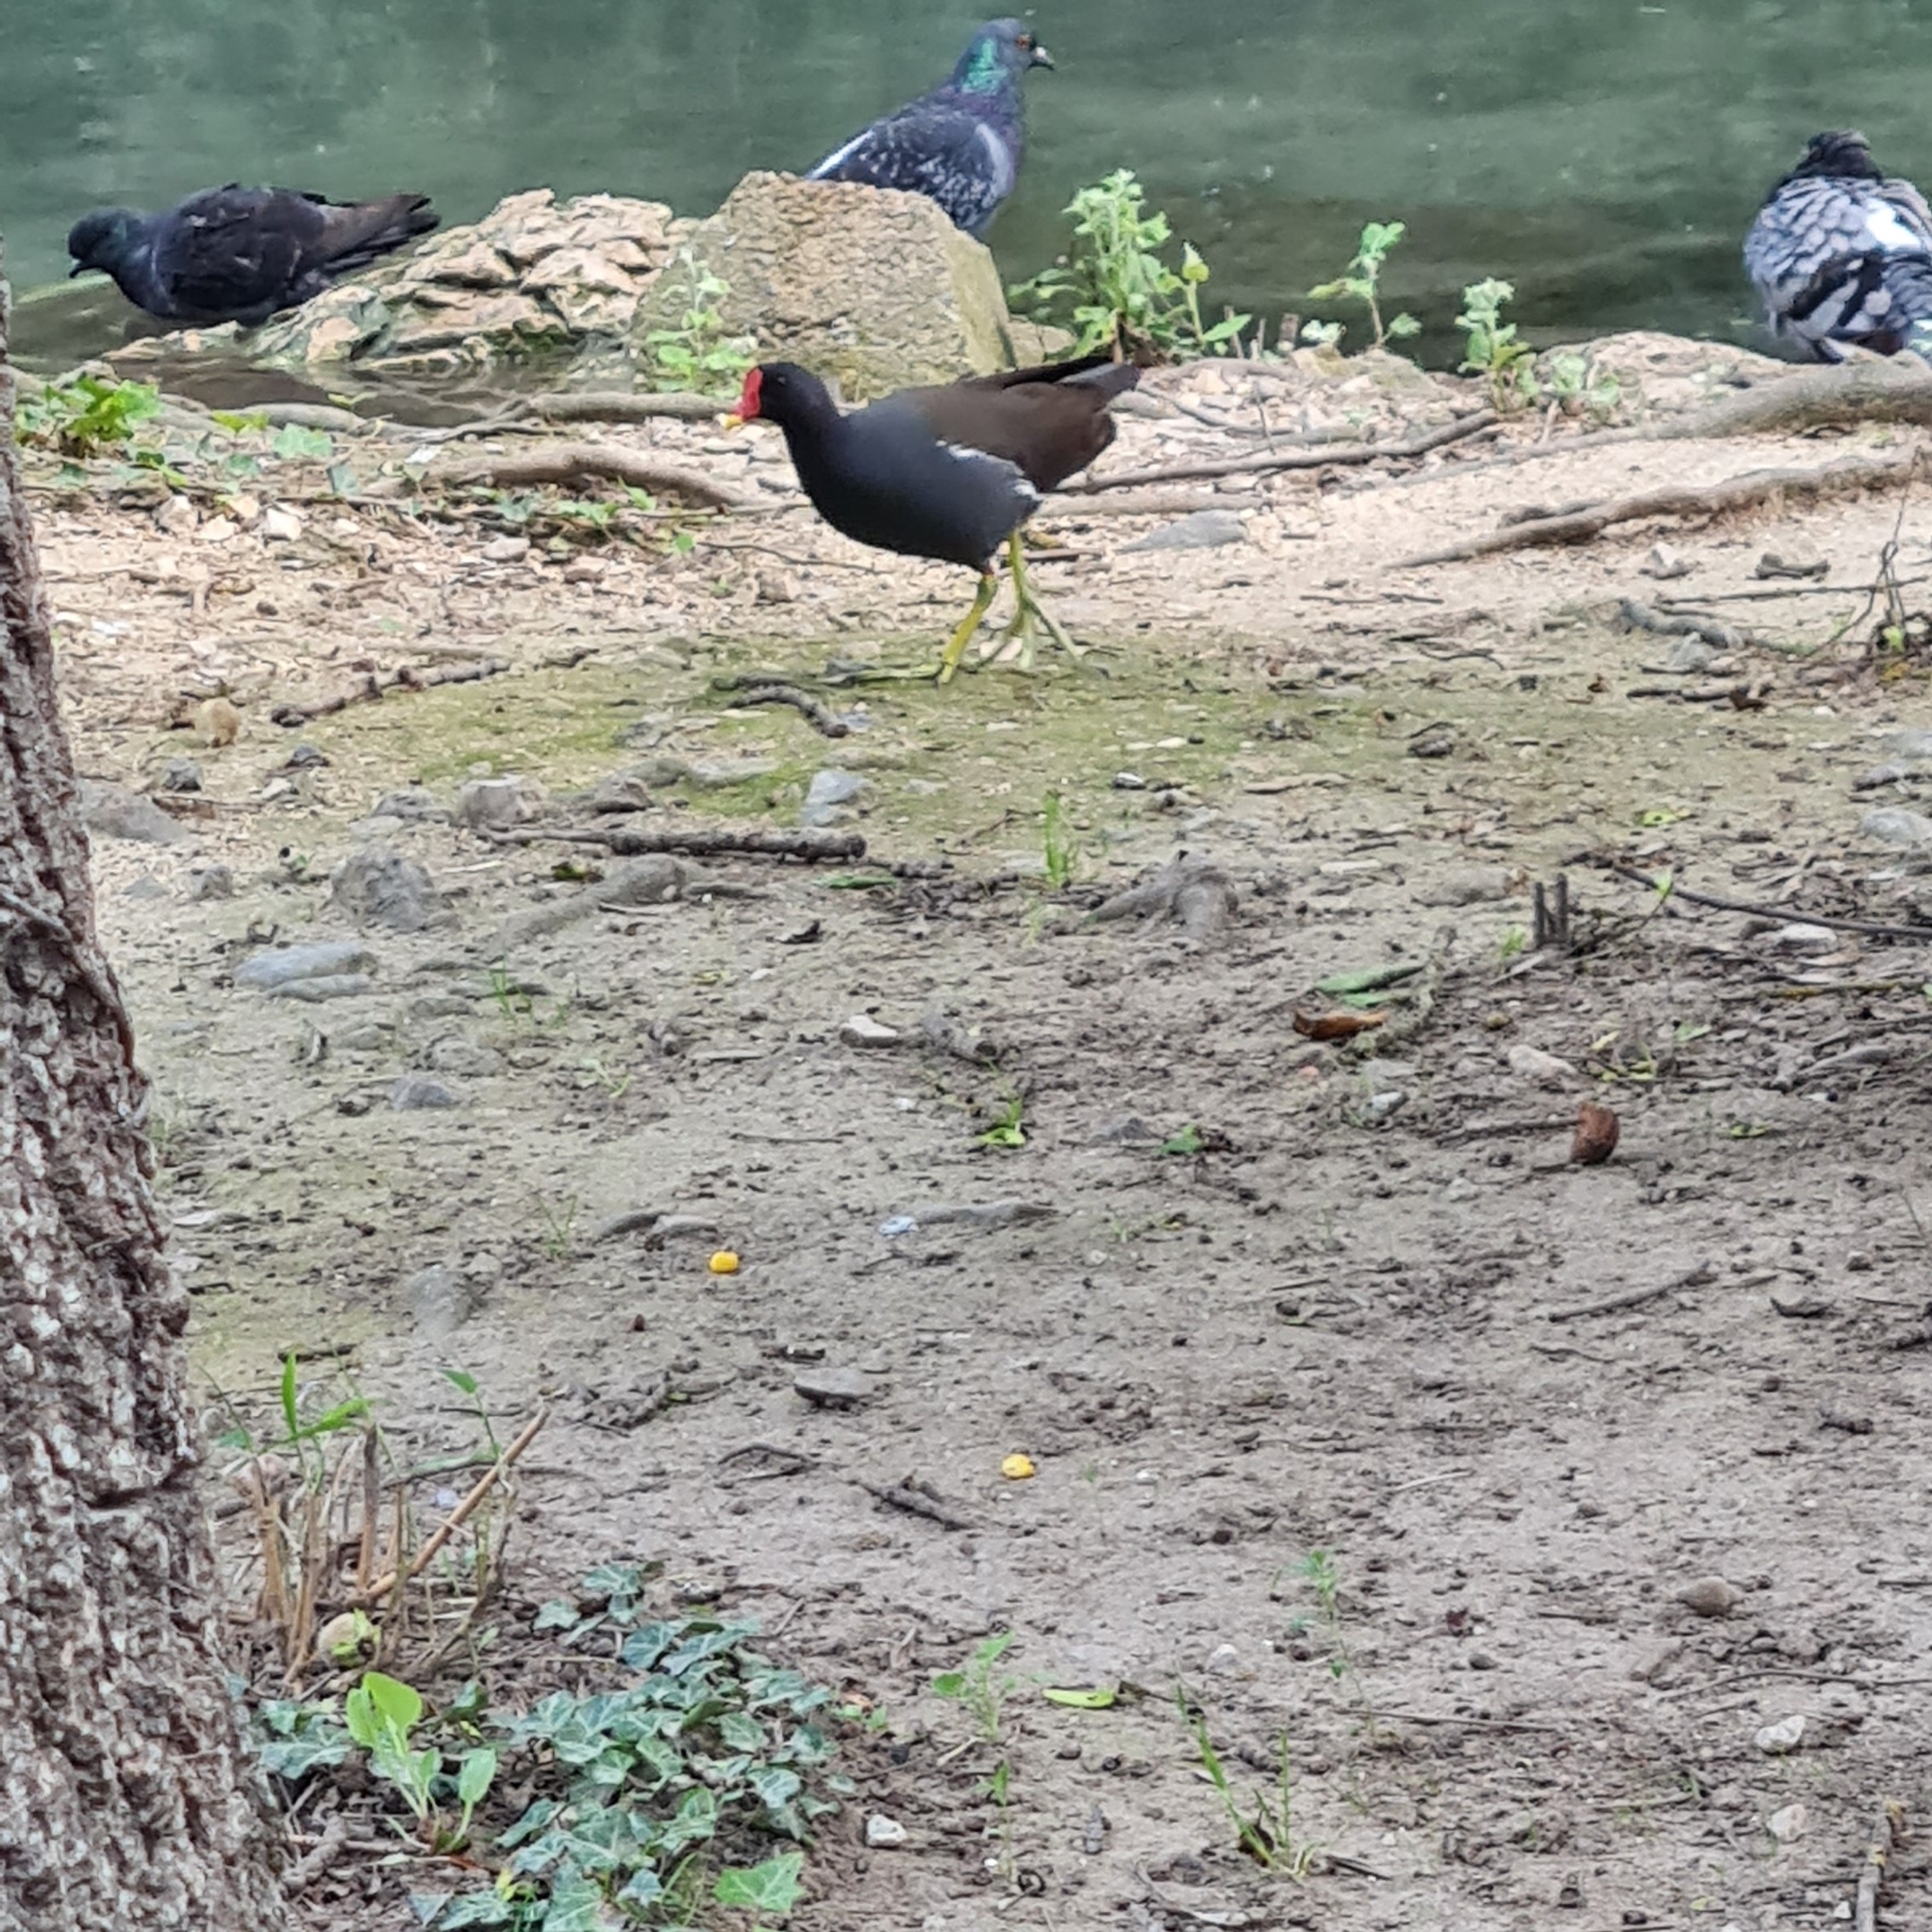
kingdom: Animalia
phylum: Chordata
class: Aves
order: Gruiformes
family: Rallidae
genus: Gallinula
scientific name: Gallinula chloropus
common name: Common moorhen
